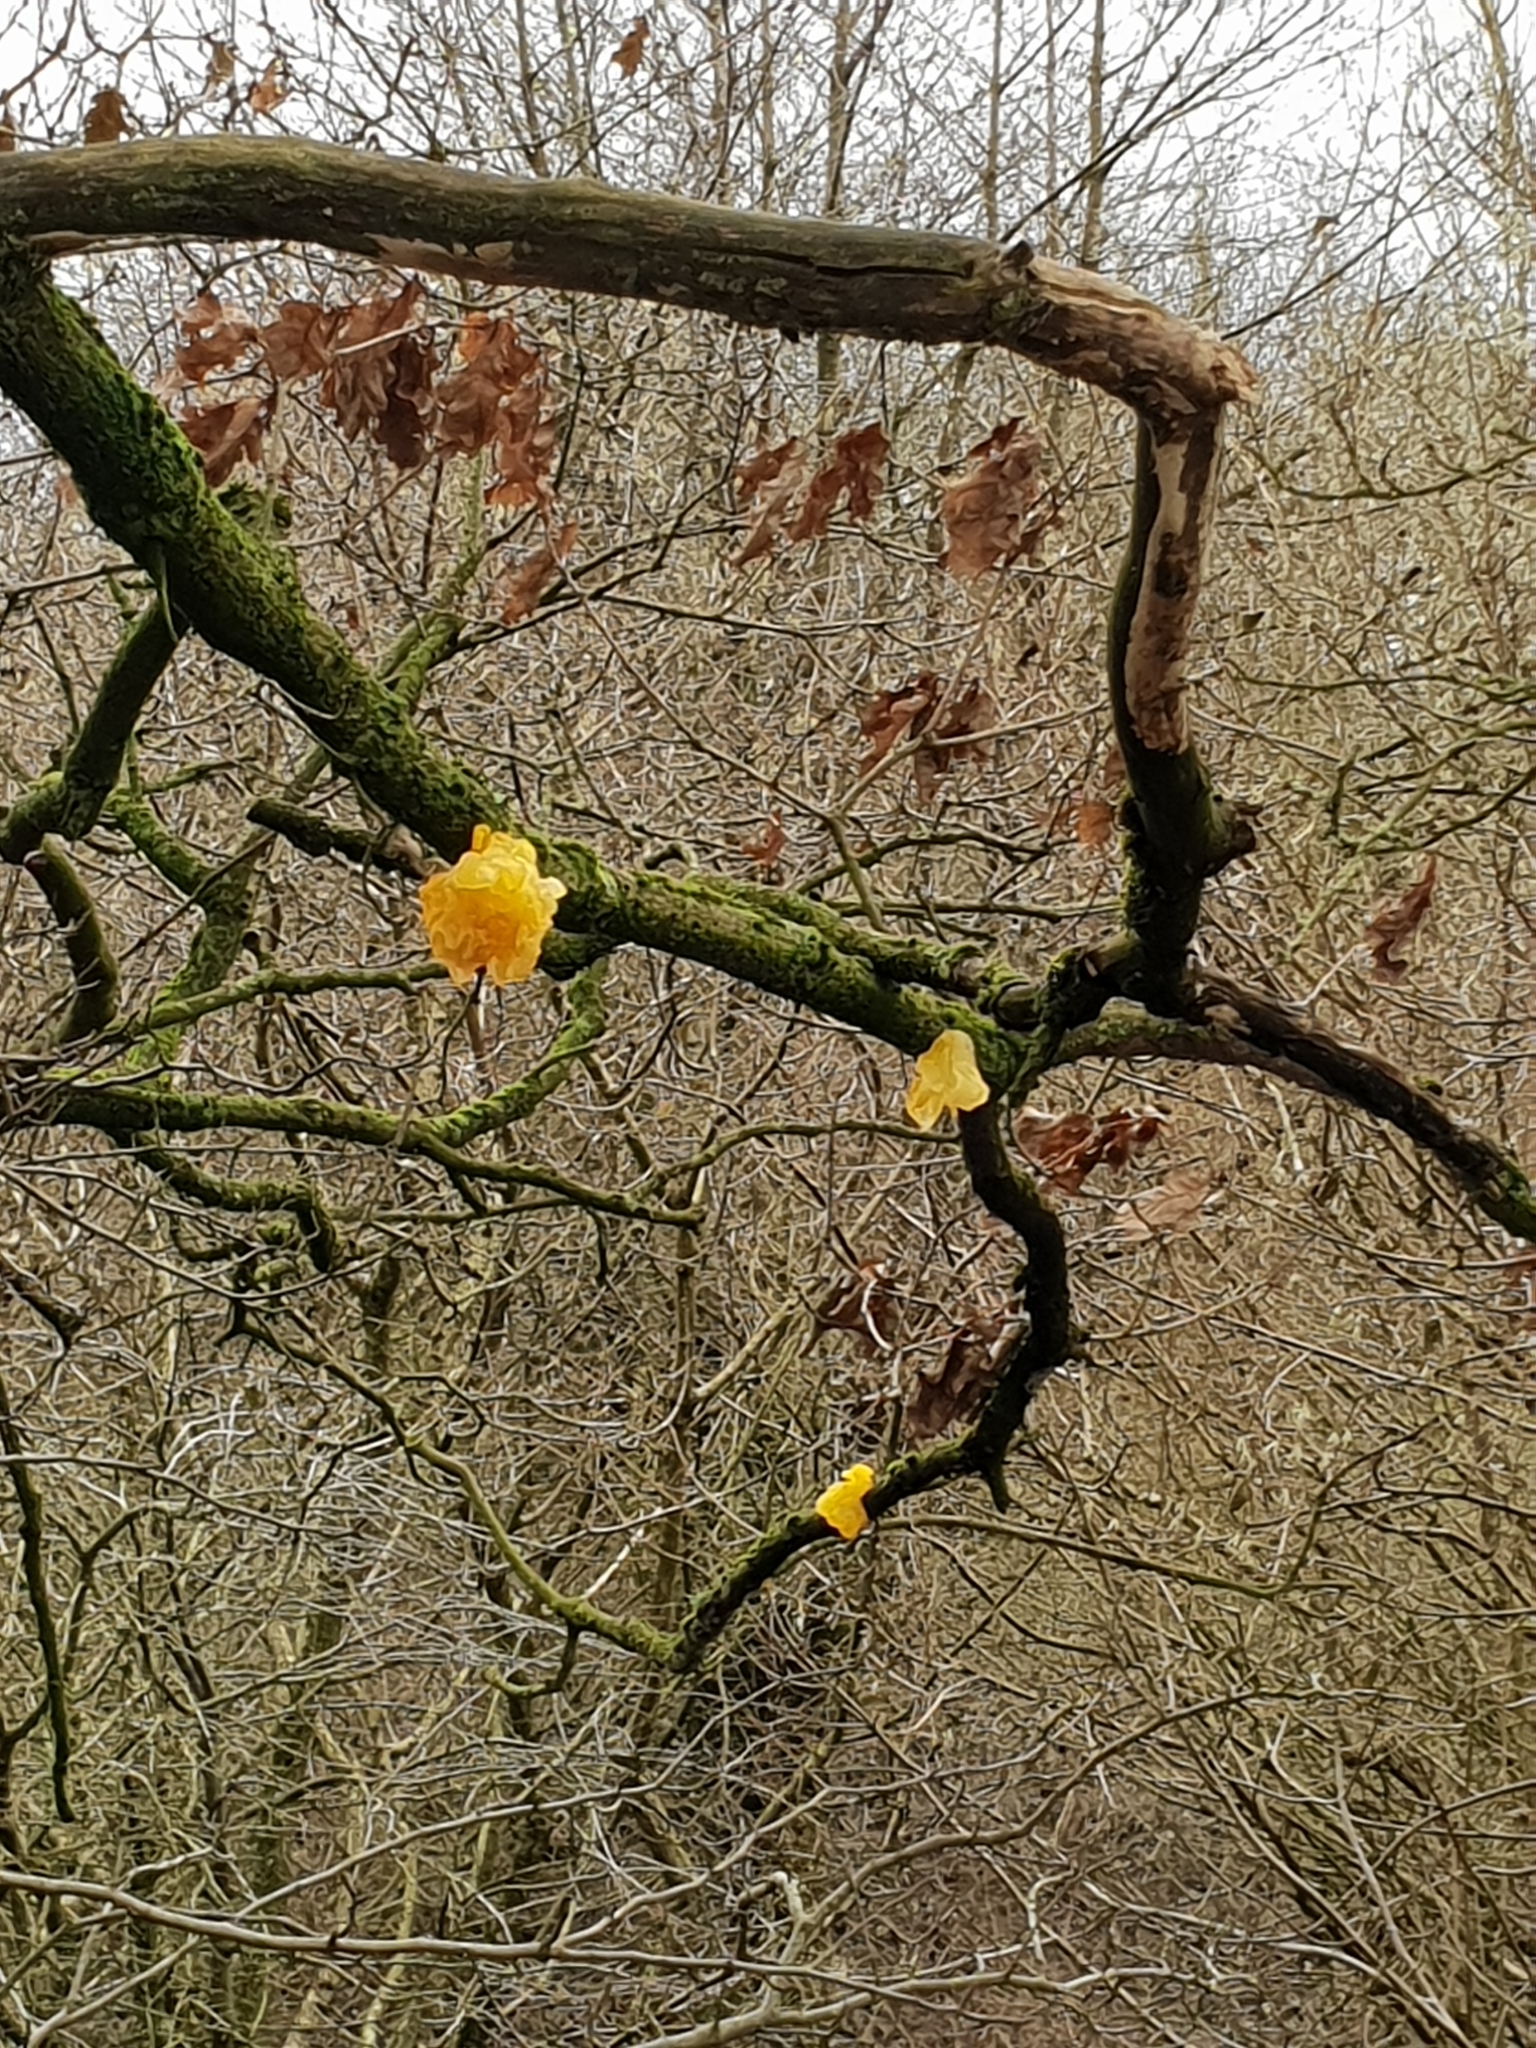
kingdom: Fungi
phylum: Basidiomycota
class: Tremellomycetes
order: Tremellales
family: Tremellaceae
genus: Tremella
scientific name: Tremella mesenterica
